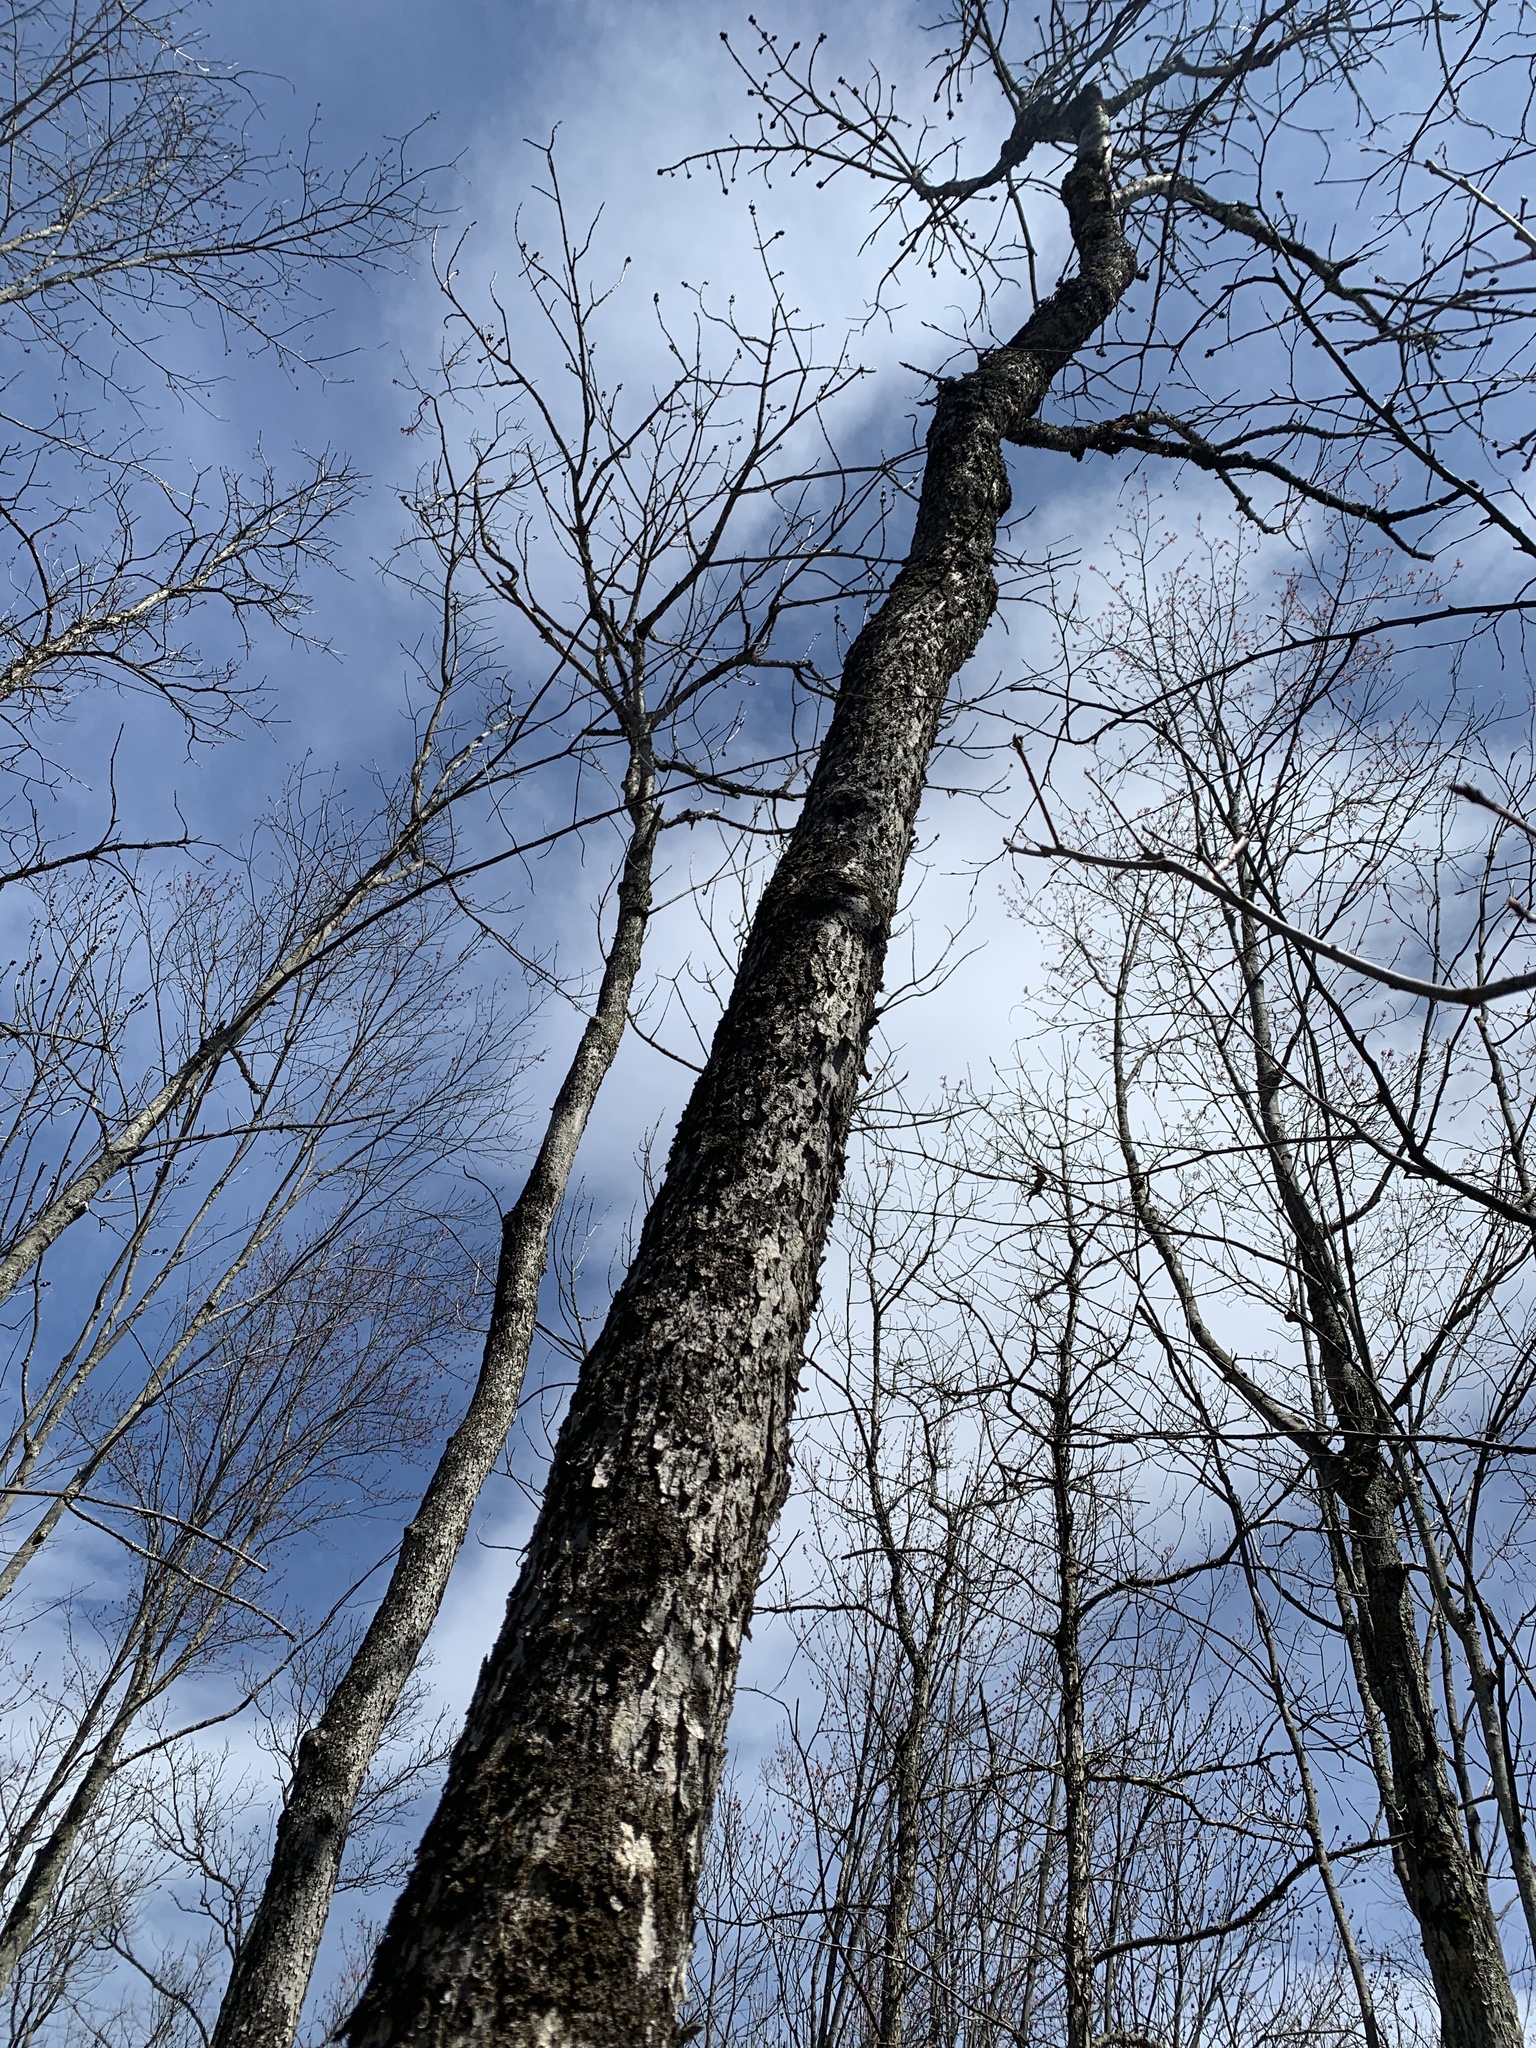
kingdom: Plantae
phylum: Tracheophyta
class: Magnoliopsida
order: Lamiales
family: Oleaceae
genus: Fraxinus
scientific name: Fraxinus nigra
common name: Black ash
